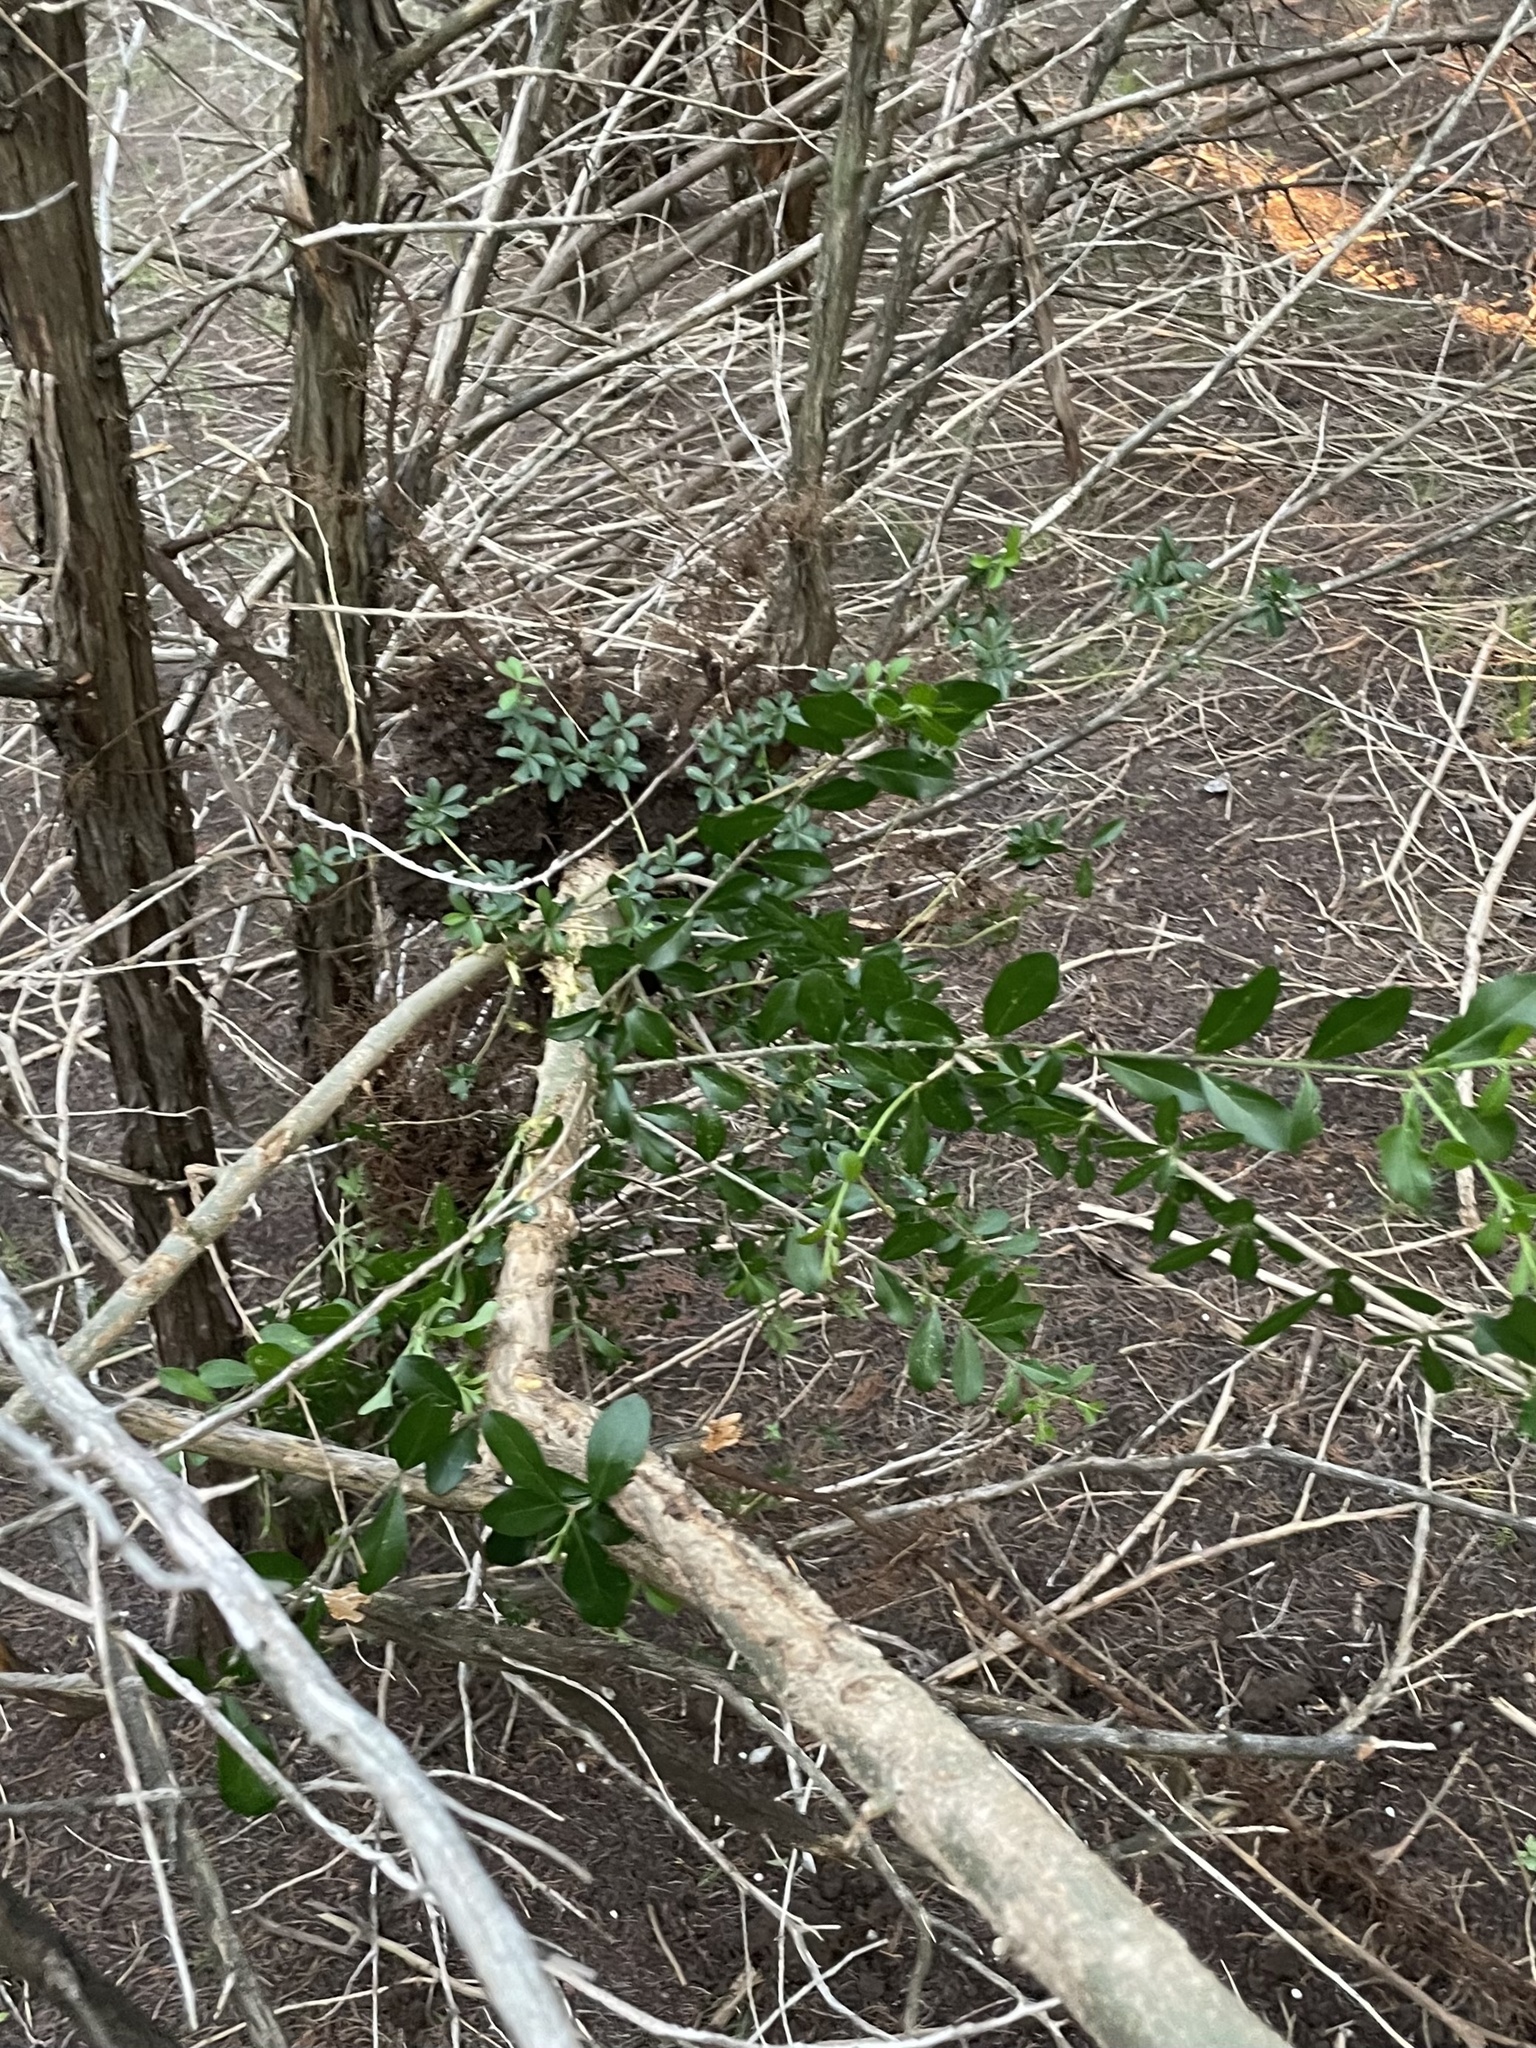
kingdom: Plantae
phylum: Tracheophyta
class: Magnoliopsida
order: Lamiales
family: Oleaceae
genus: Ligustrum
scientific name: Ligustrum quihoui
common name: Waxyleaf privet
